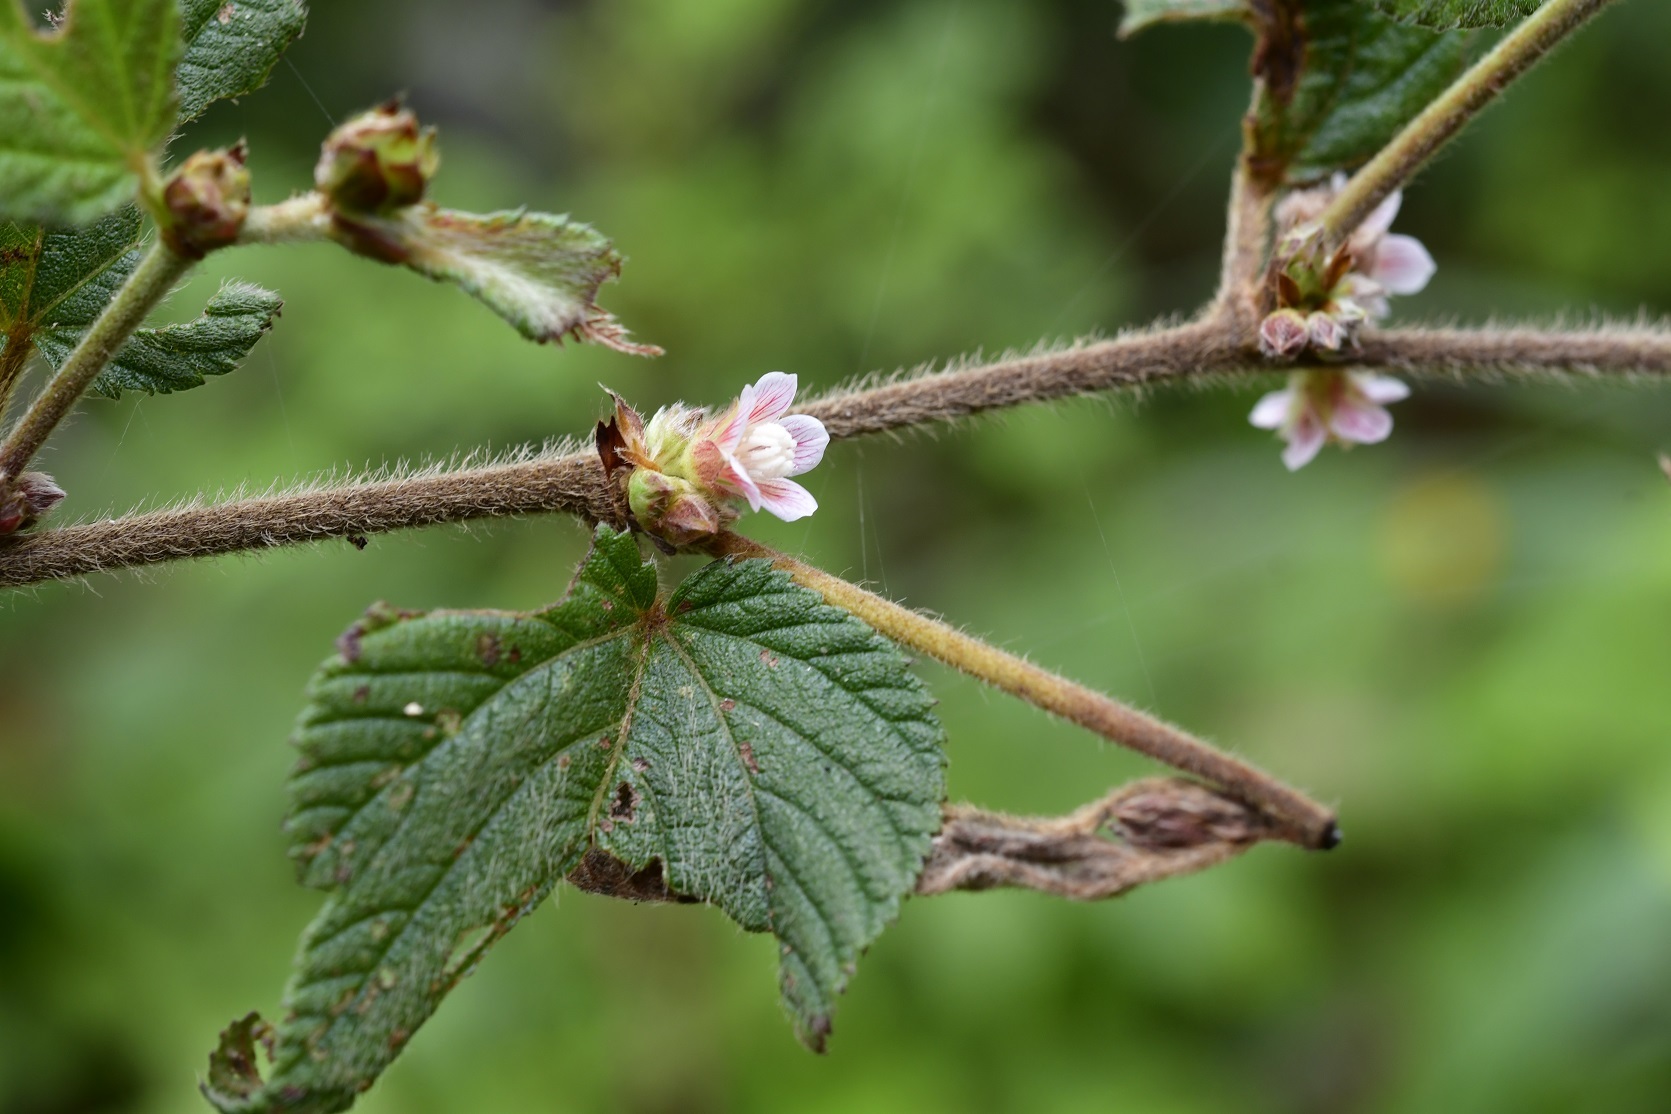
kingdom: Plantae
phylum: Tracheophyta
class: Magnoliopsida
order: Malvales
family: Malvaceae
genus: Melochia
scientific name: Melochia nodiflora
